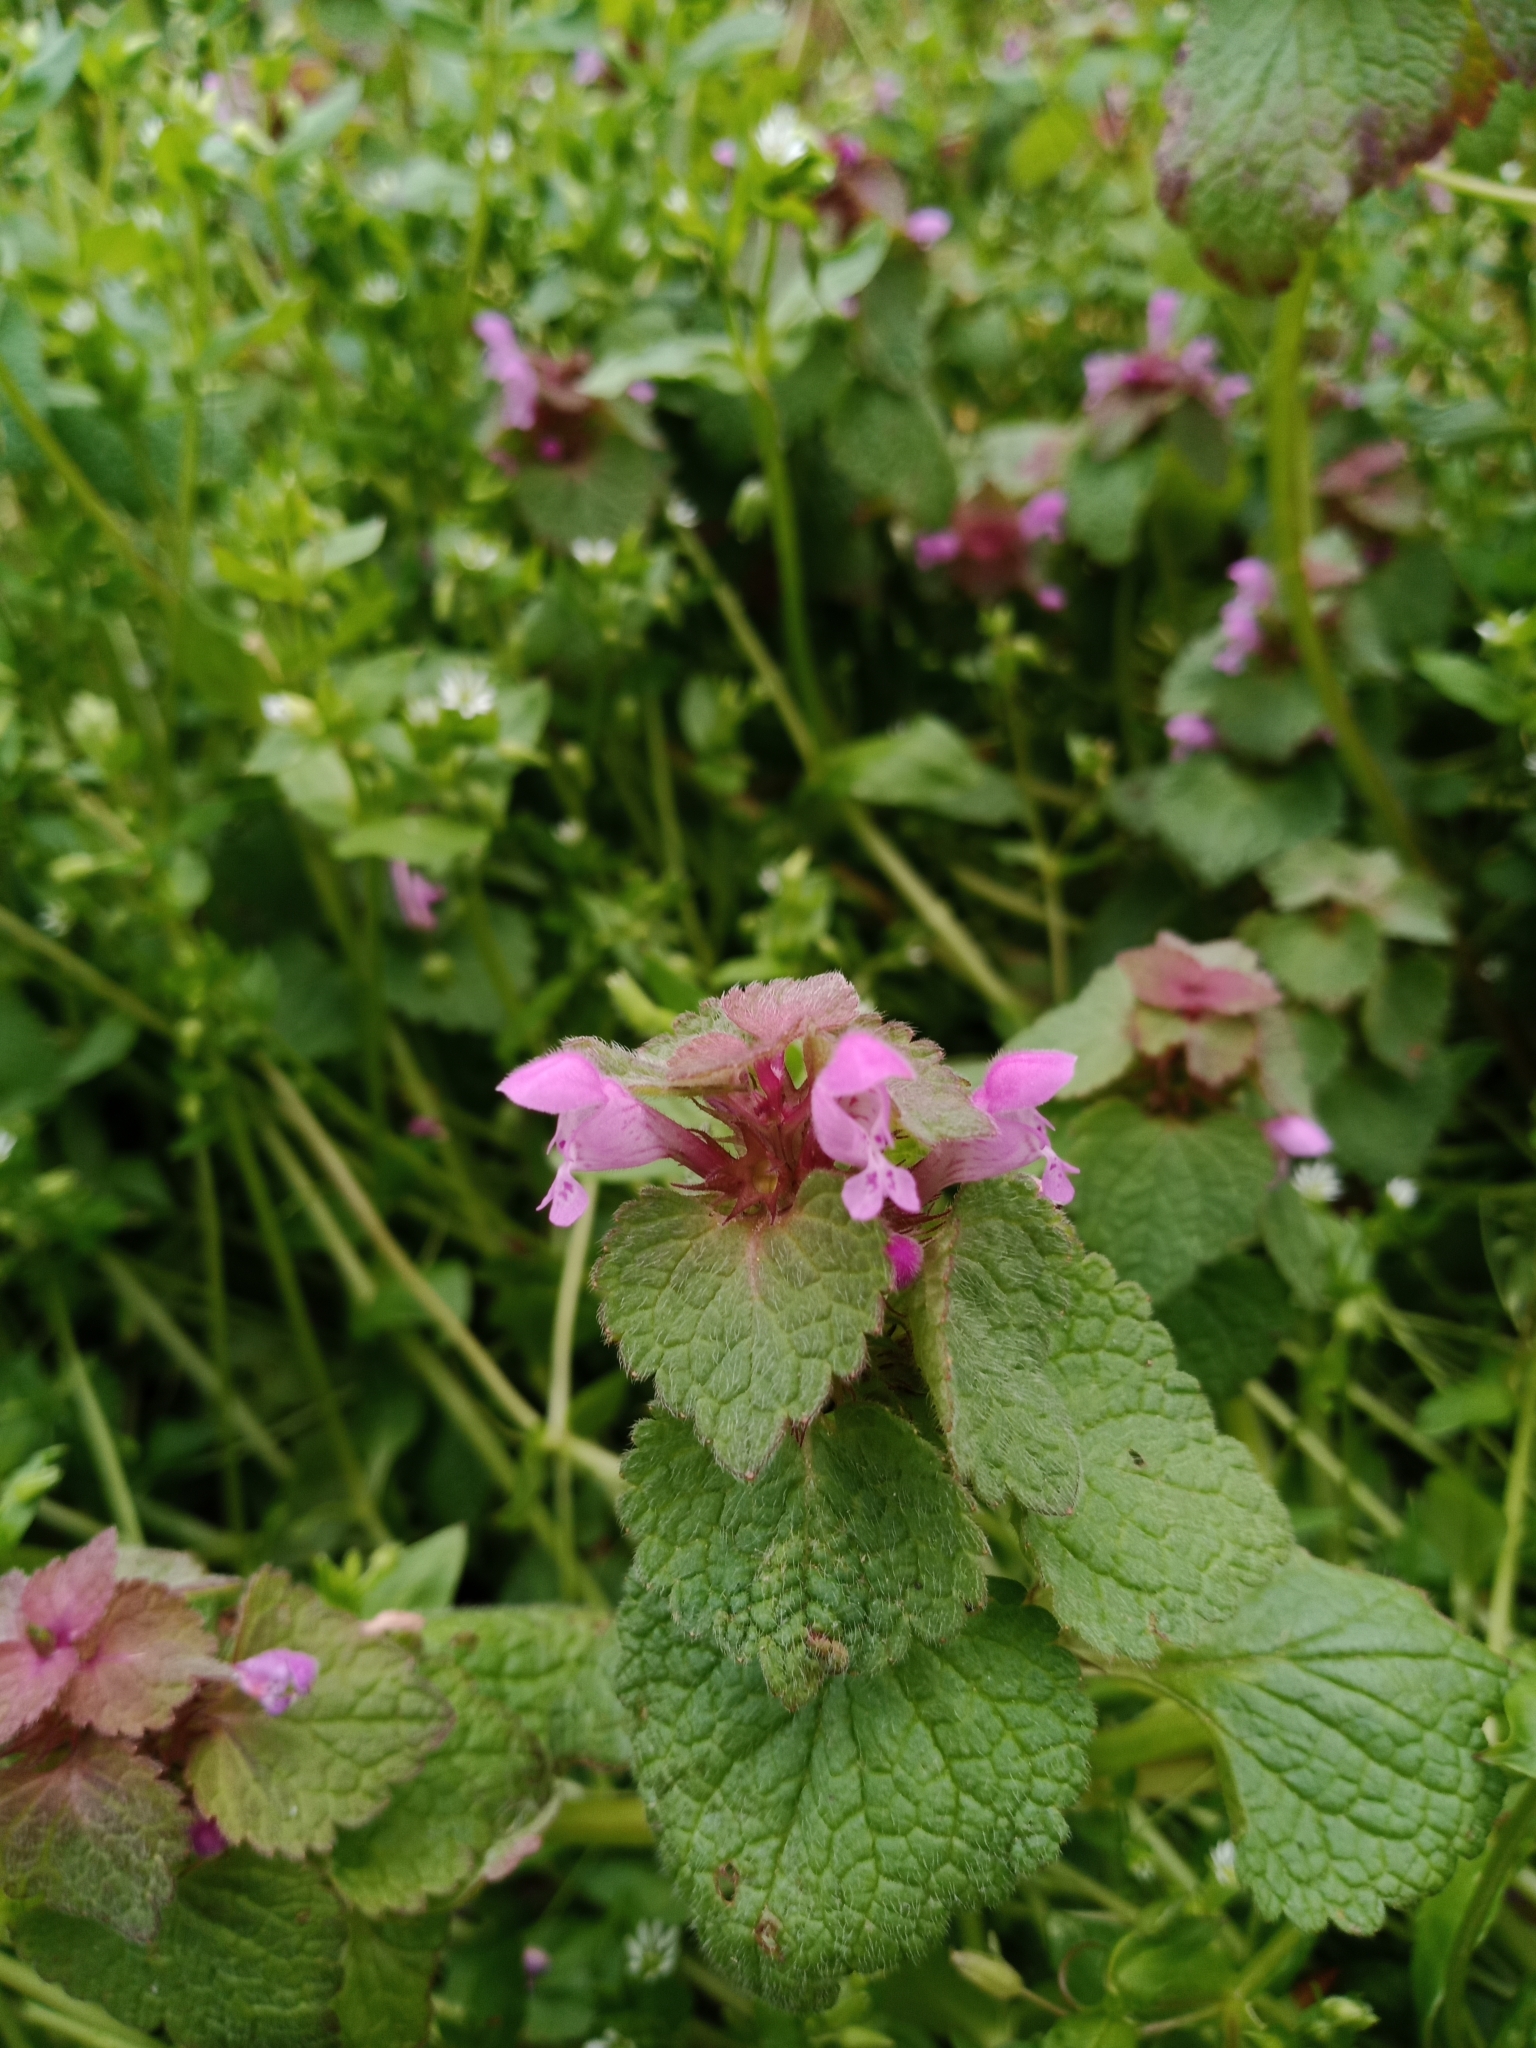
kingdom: Plantae
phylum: Tracheophyta
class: Magnoliopsida
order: Lamiales
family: Lamiaceae
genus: Lamium
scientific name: Lamium purpureum
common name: Red dead-nettle
